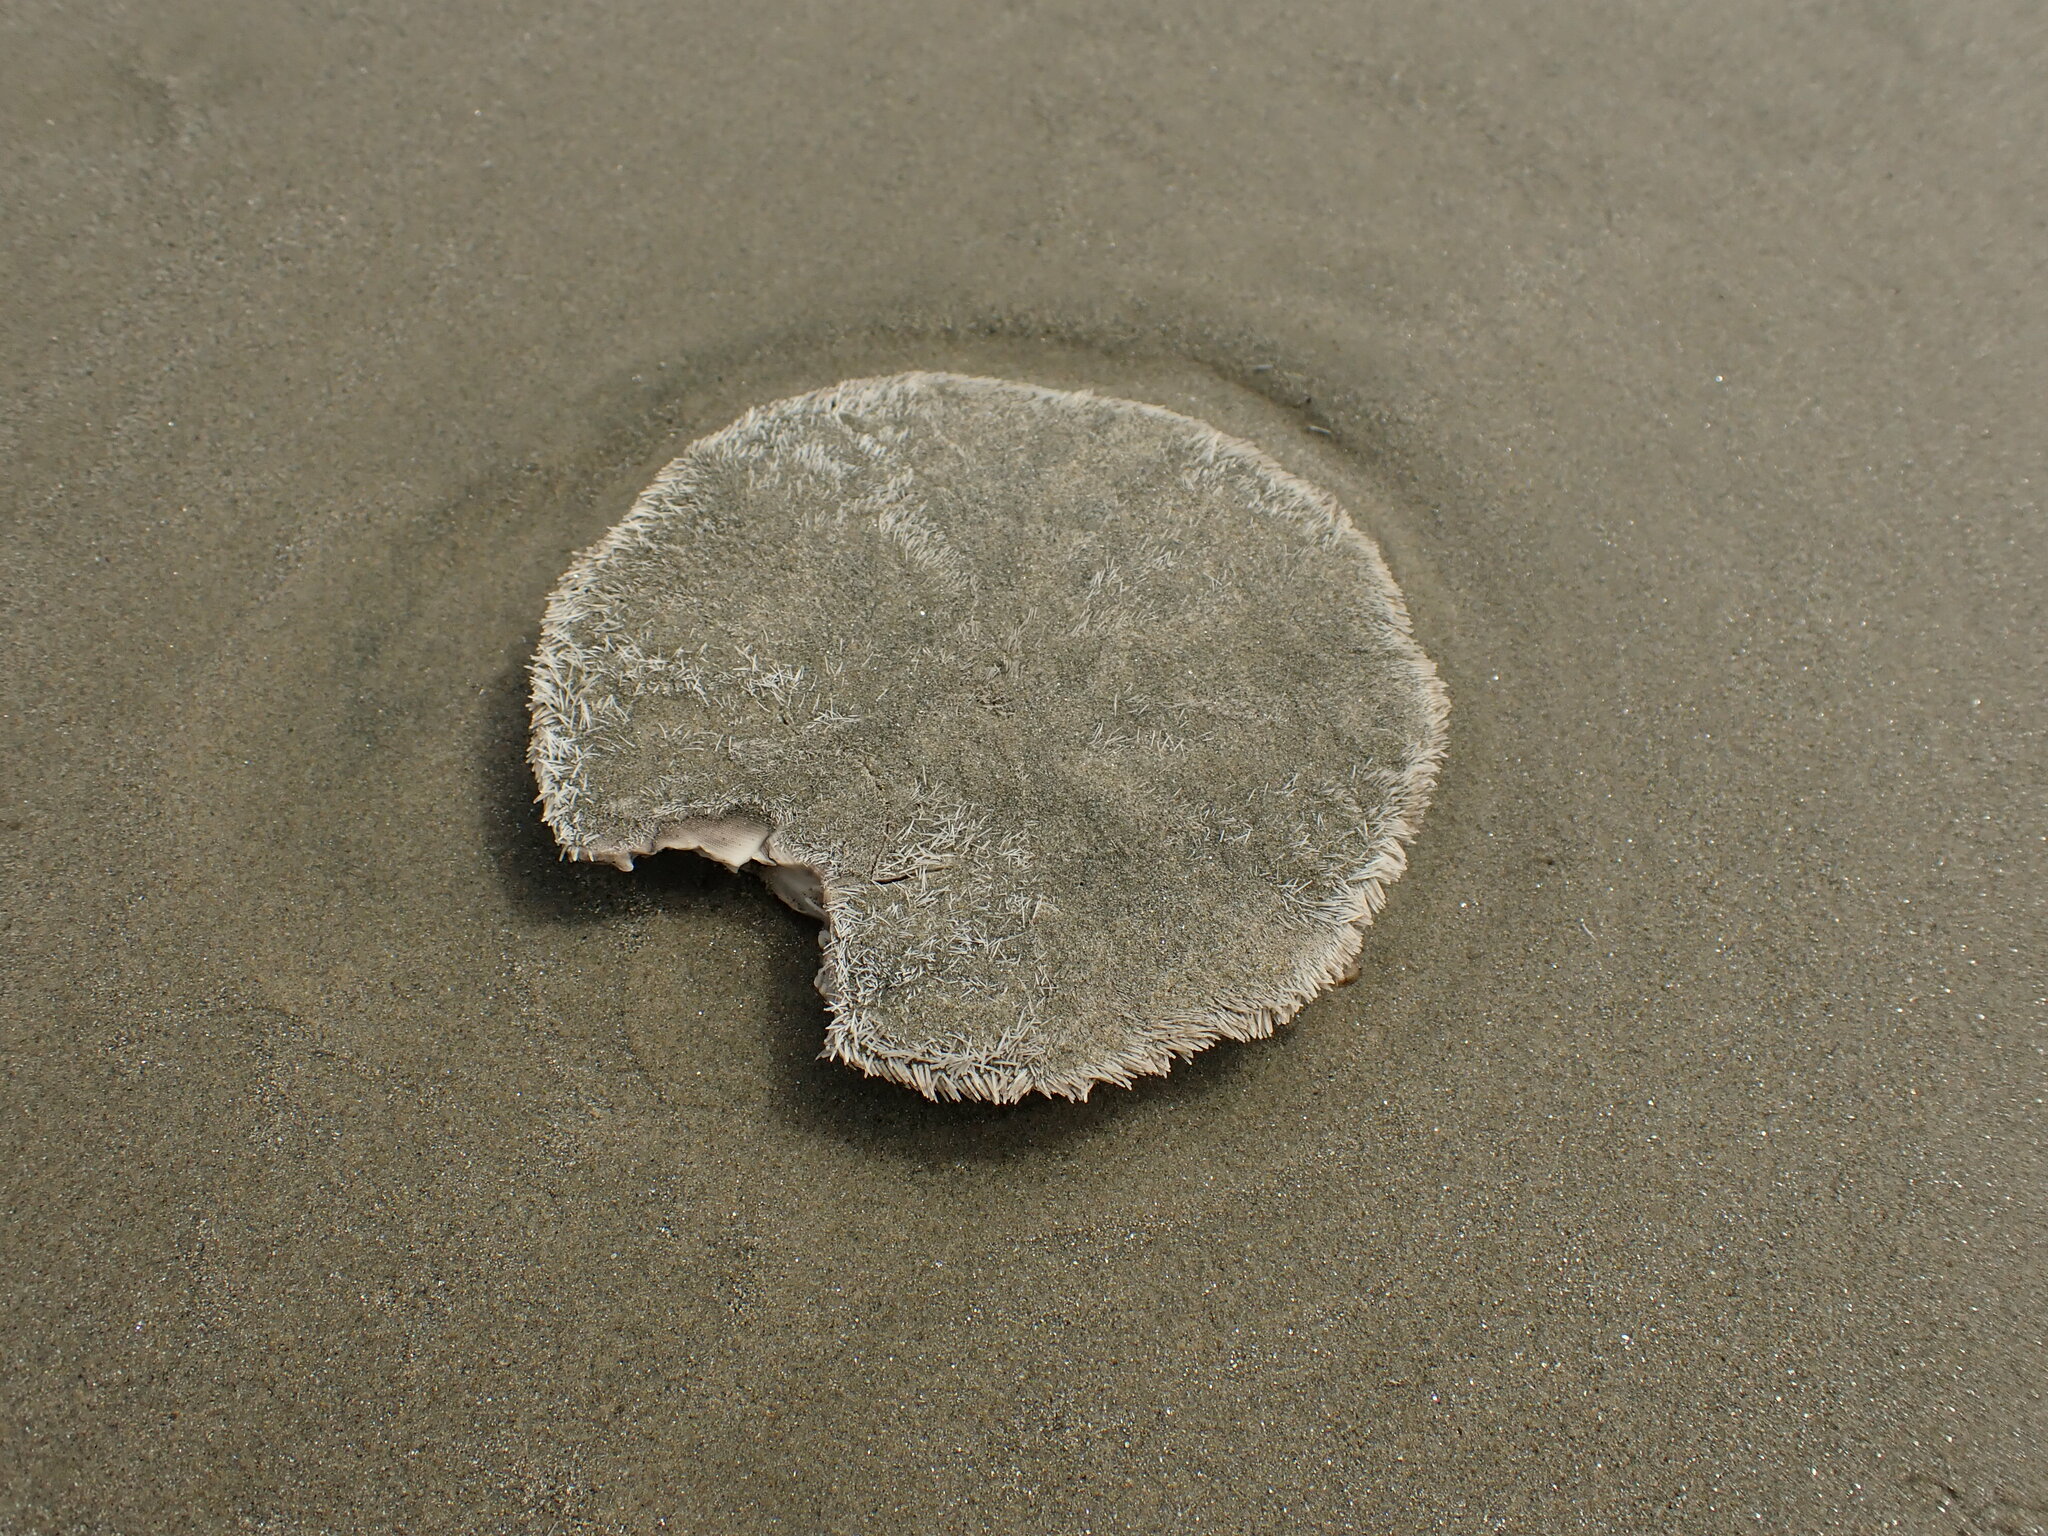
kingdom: Animalia
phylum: Echinodermata
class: Echinoidea
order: Clypeasteroida
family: Clypeasteridae
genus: Fellaster
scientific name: Fellaster zelandiae
